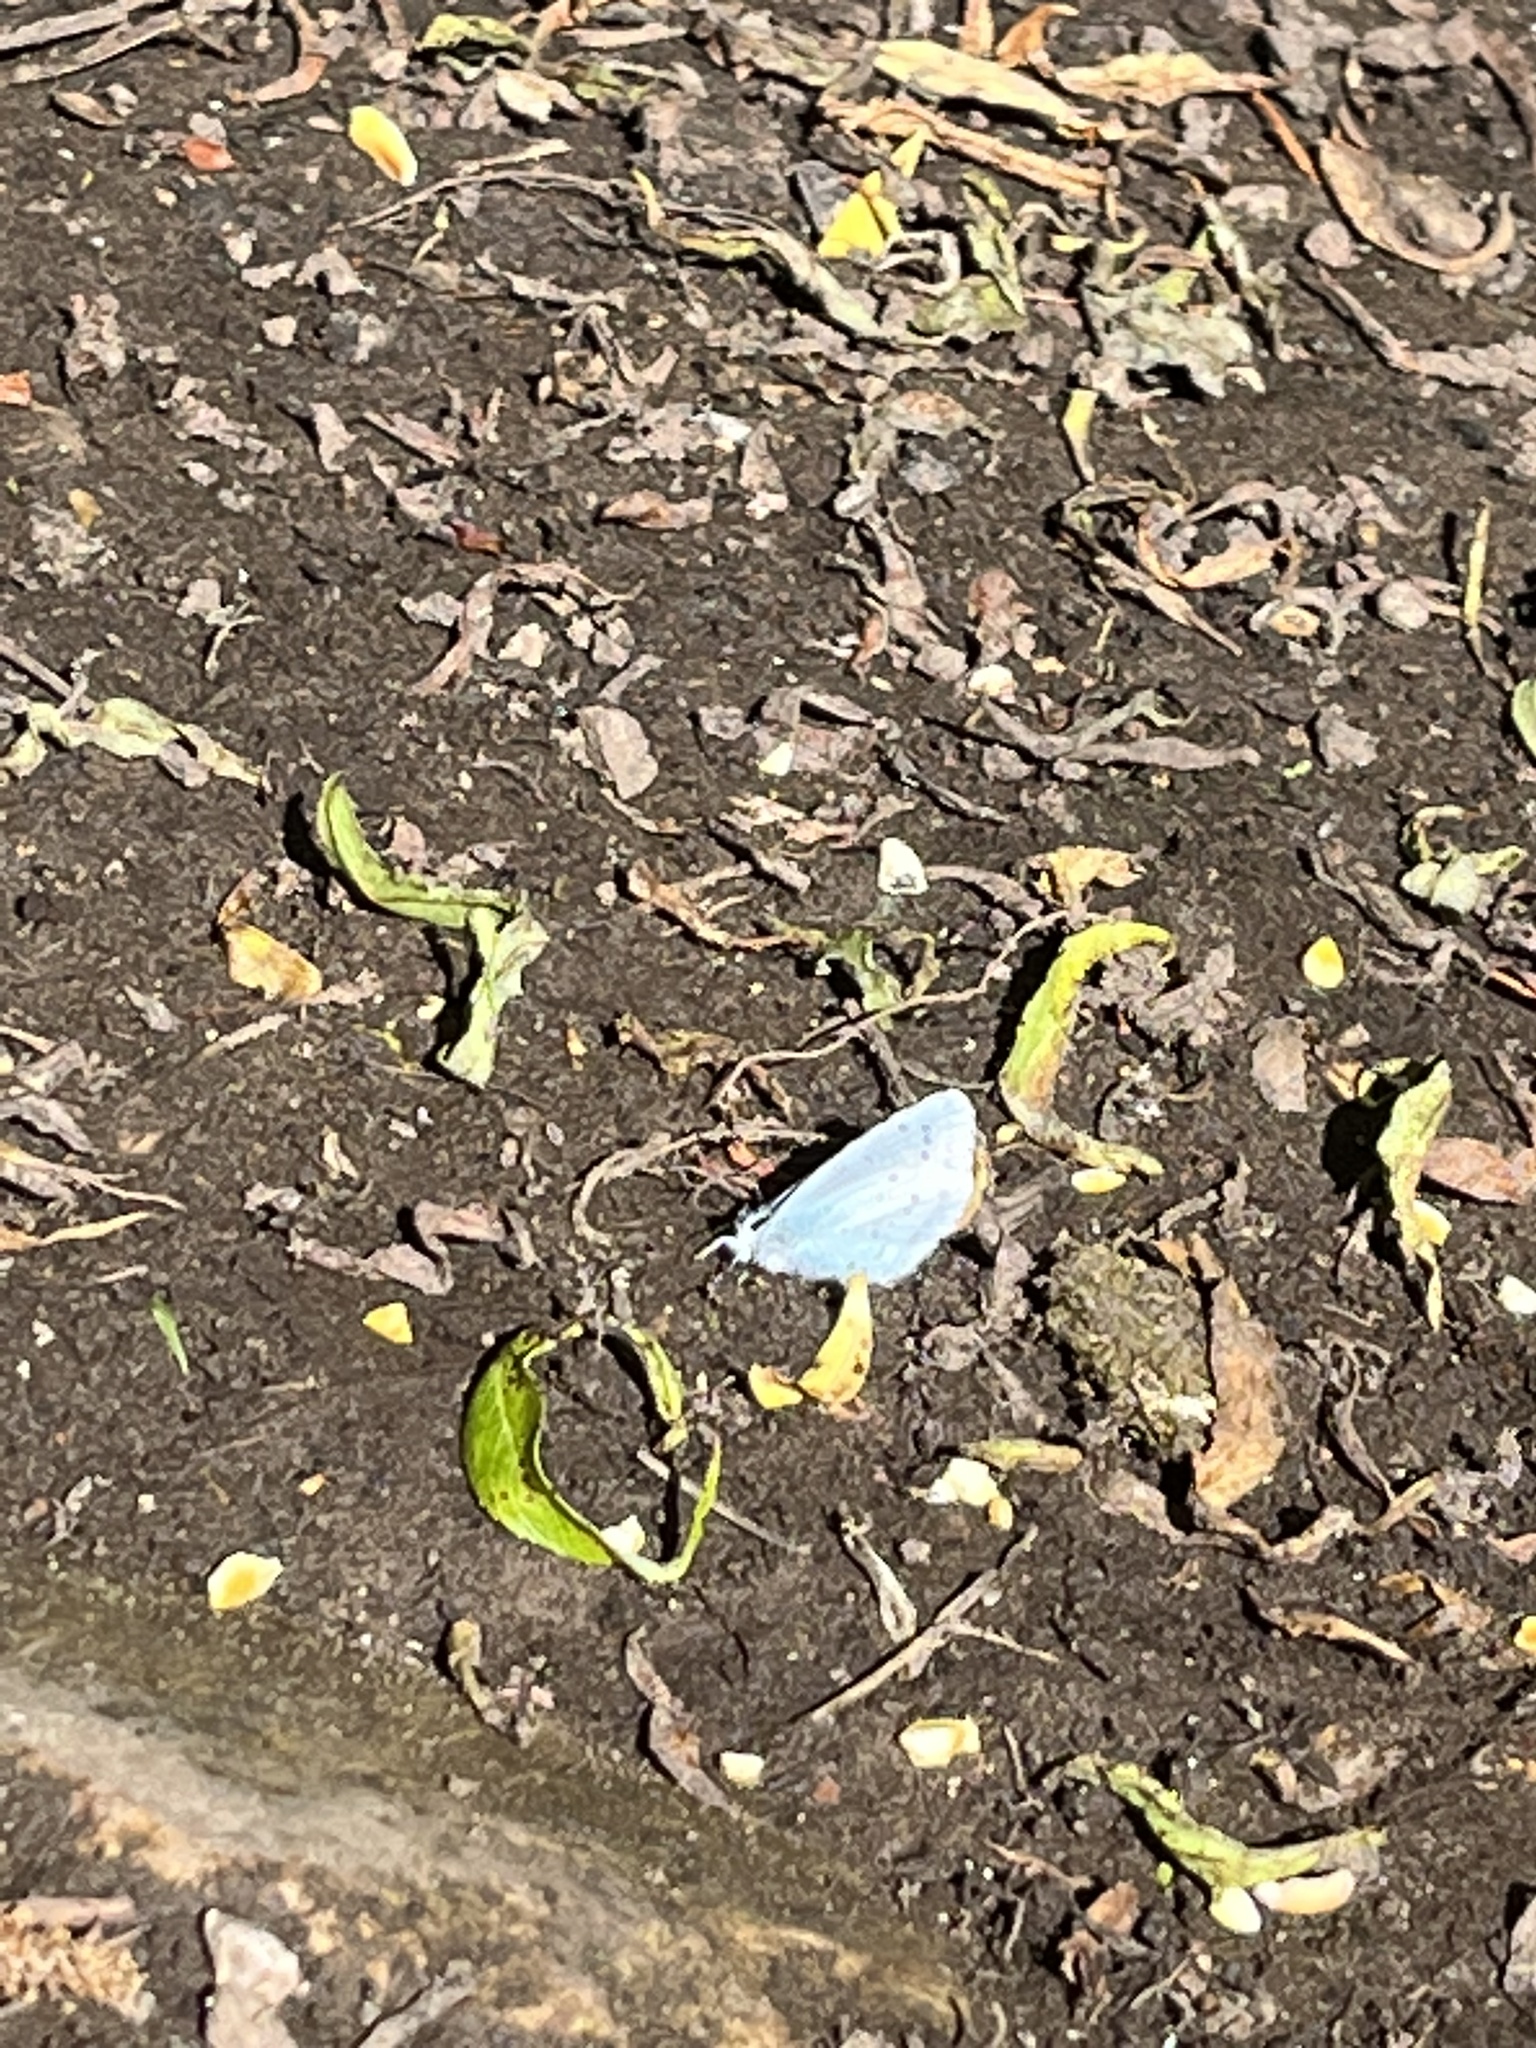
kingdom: Animalia
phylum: Arthropoda
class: Insecta
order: Lepidoptera
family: Lycaenidae
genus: Celastrina
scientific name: Celastrina argiolus
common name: Holly blue
